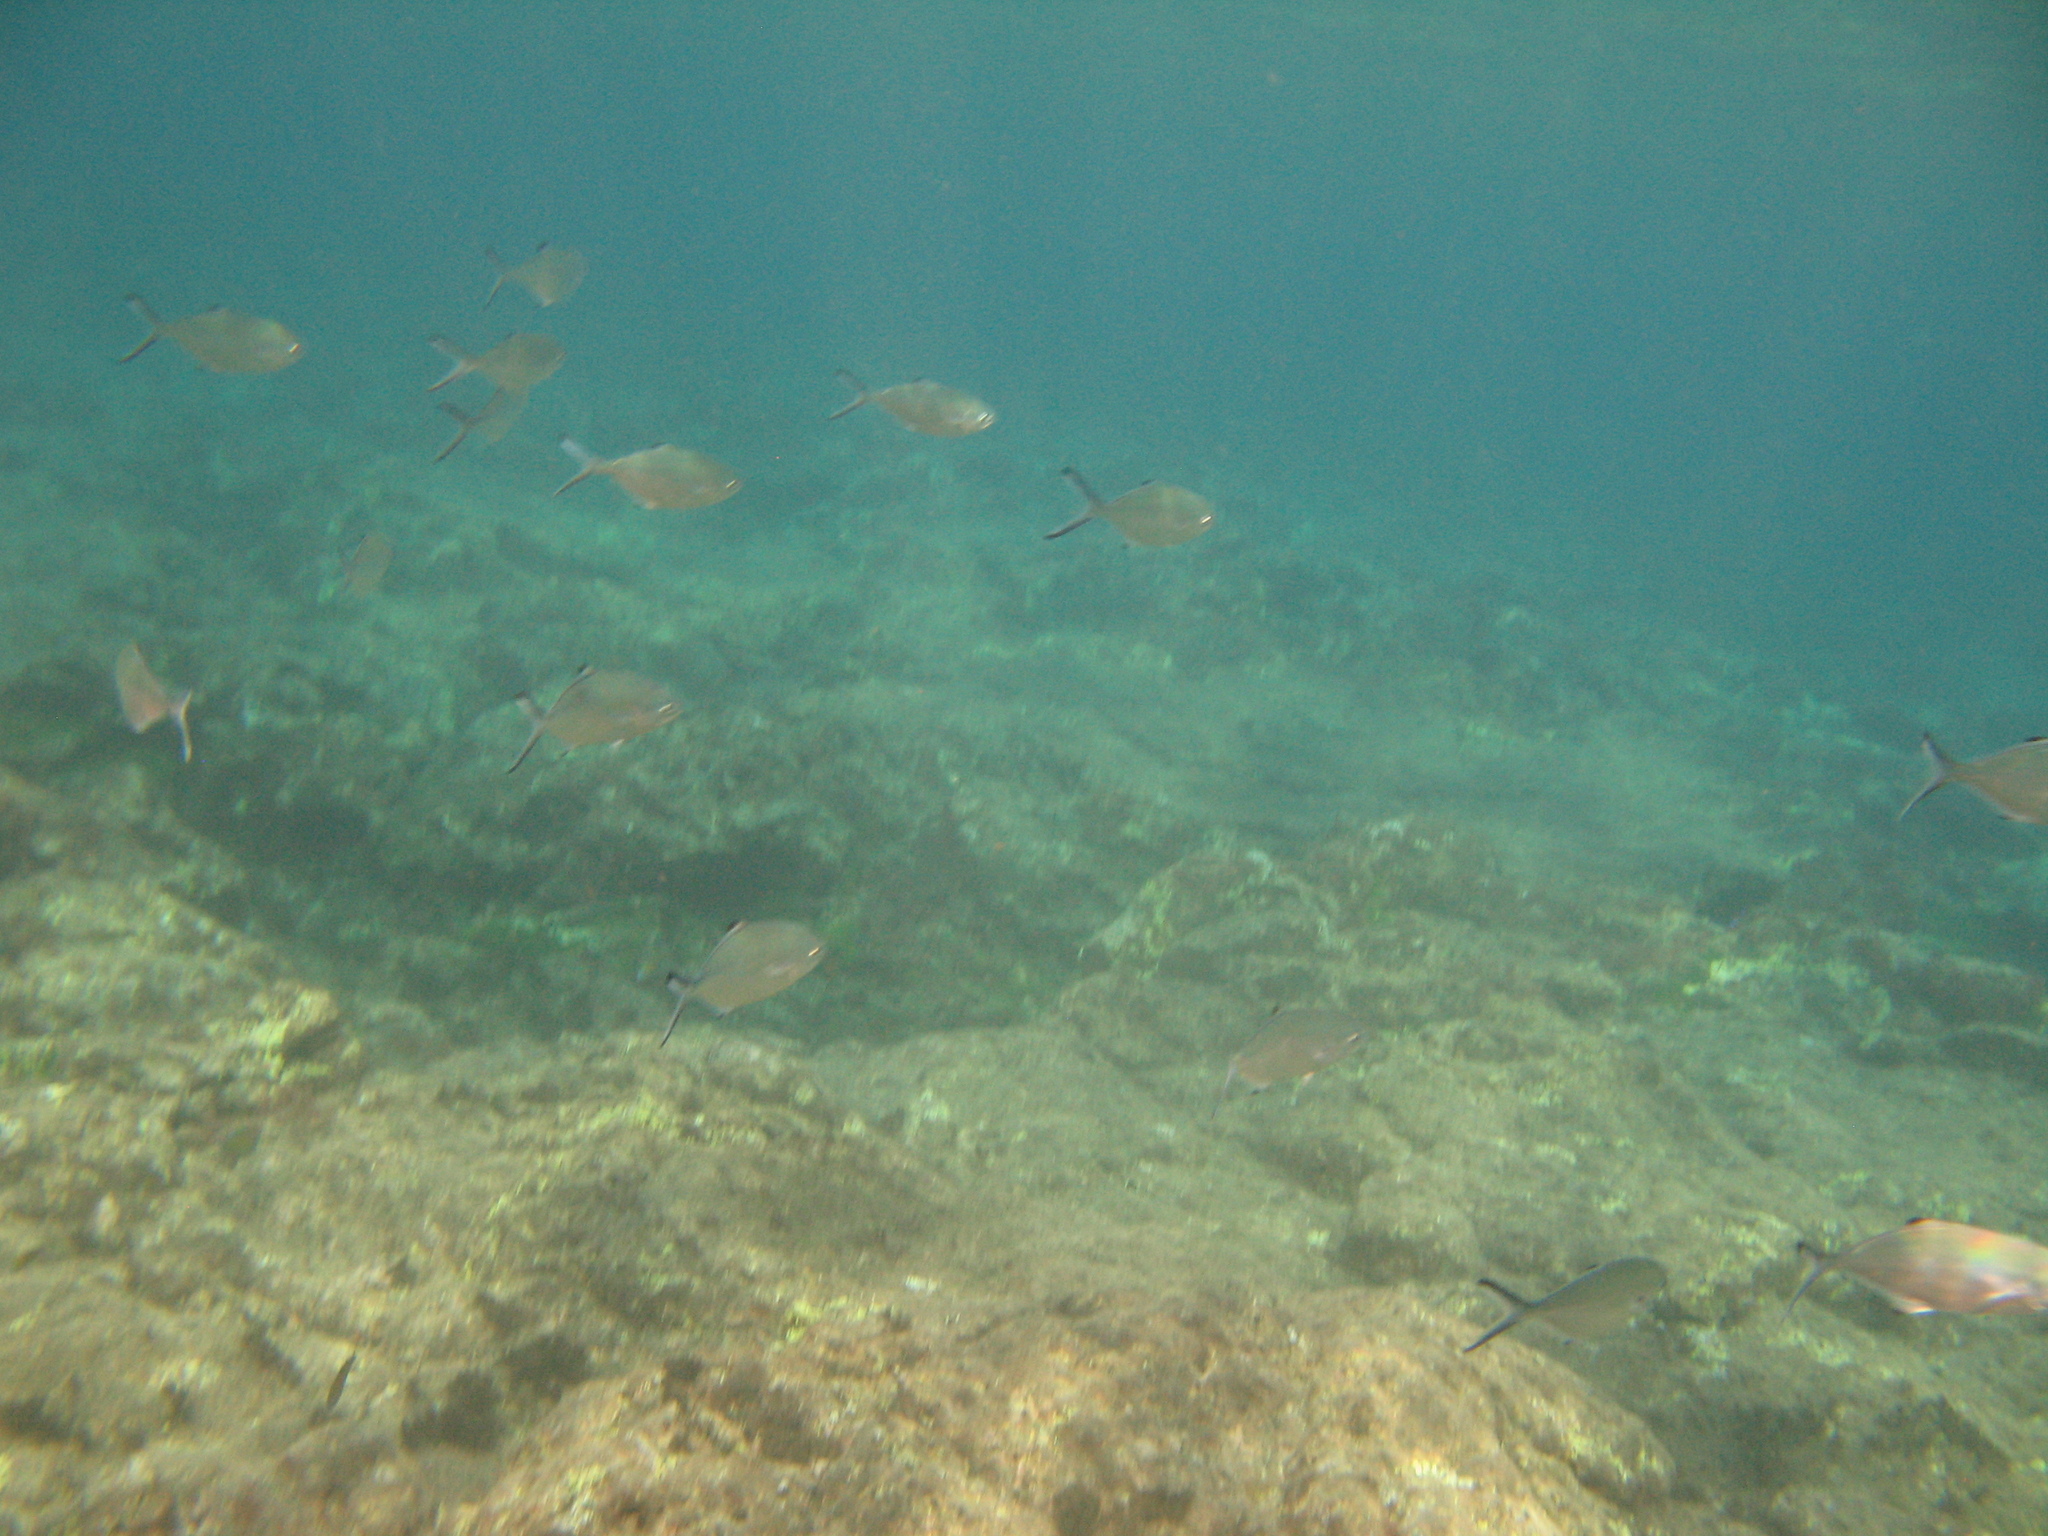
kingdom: Animalia
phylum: Chordata
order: Perciformes
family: Carangidae
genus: Trachinotus
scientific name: Trachinotus ovatus
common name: Pompano
